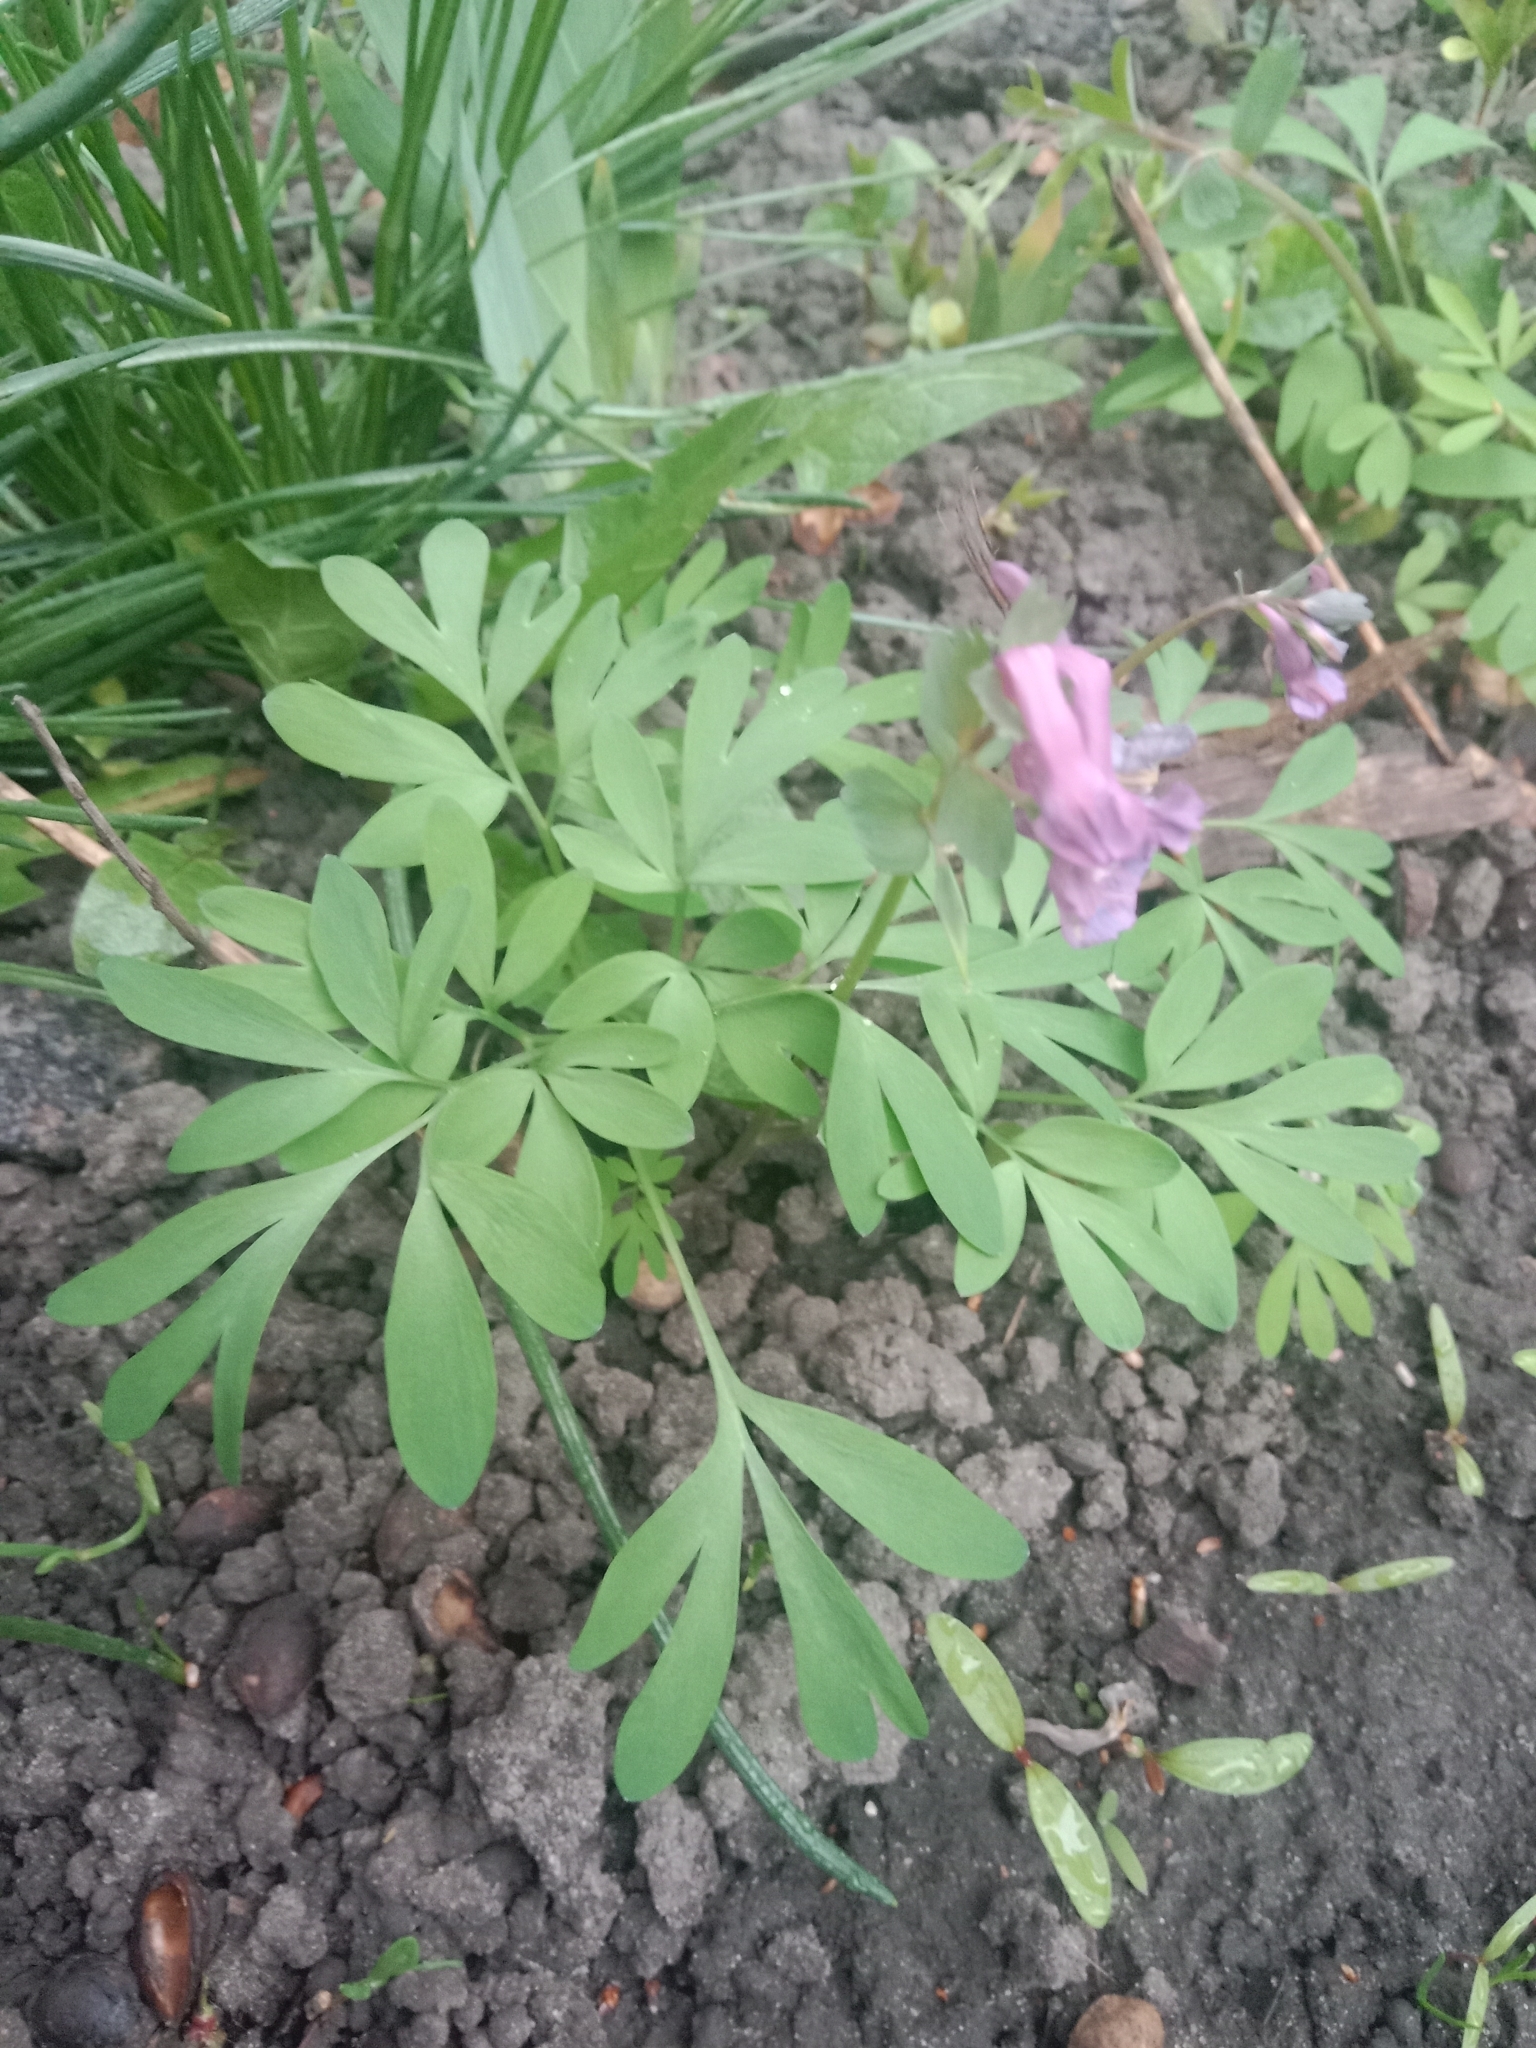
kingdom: Plantae
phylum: Tracheophyta
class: Magnoliopsida
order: Ranunculales
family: Papaveraceae
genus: Corydalis
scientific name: Corydalis solida
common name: Bird-in-a-bush
